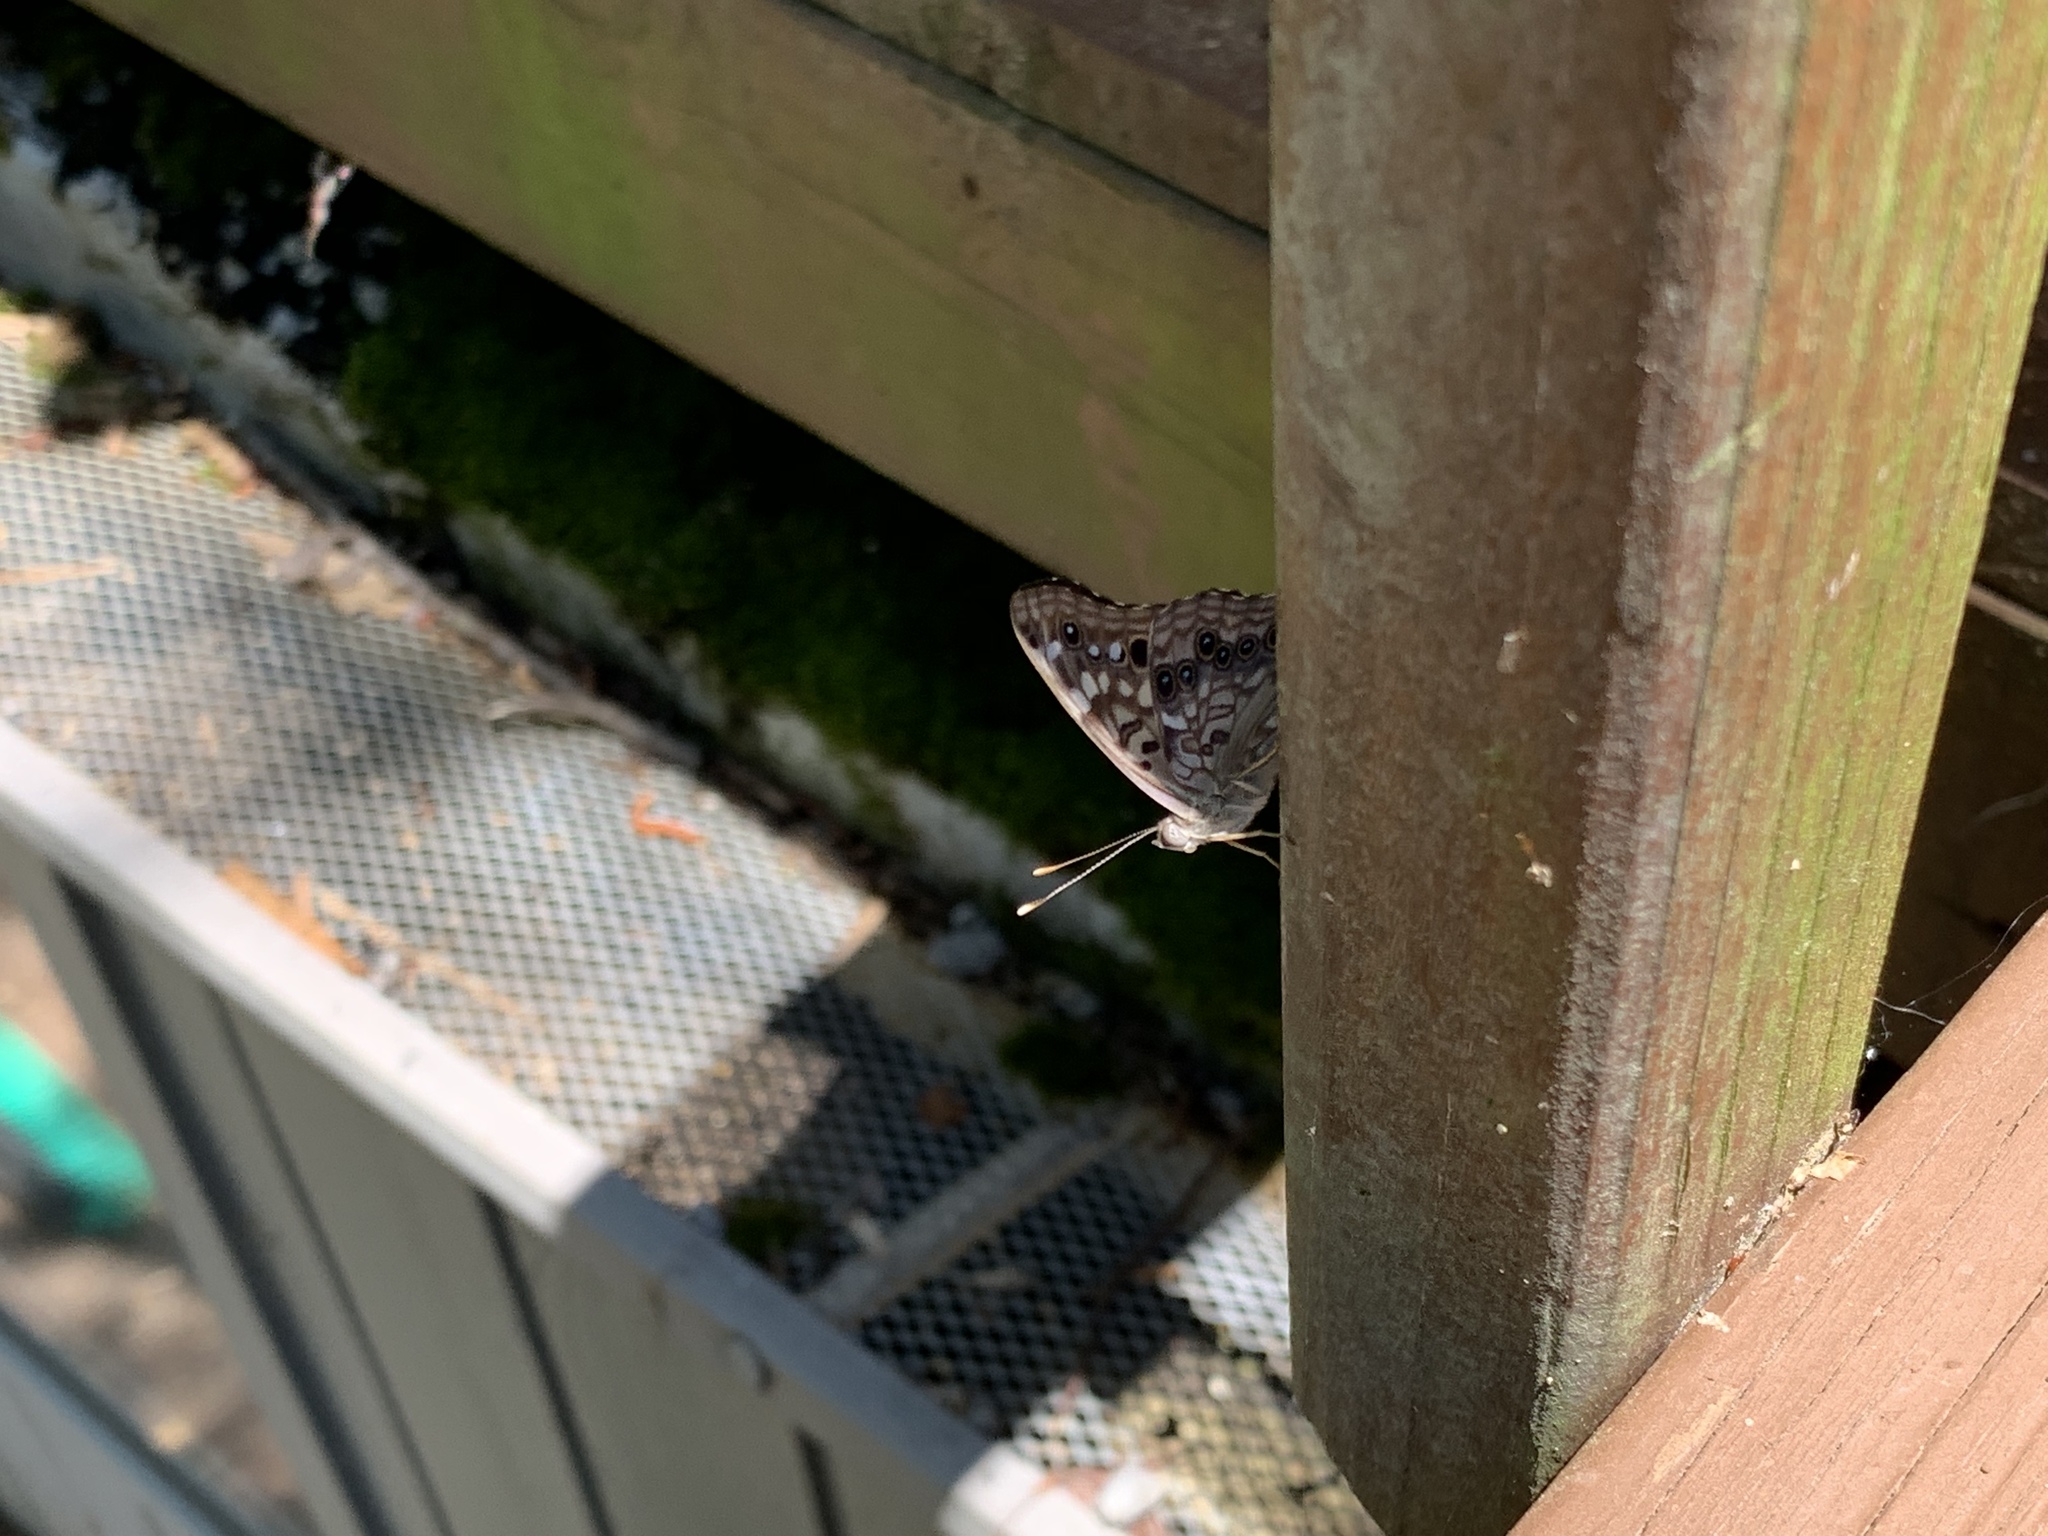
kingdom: Animalia
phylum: Arthropoda
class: Insecta
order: Lepidoptera
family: Nymphalidae
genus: Asterocampa
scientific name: Asterocampa celtis
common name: Hackberry emperor
